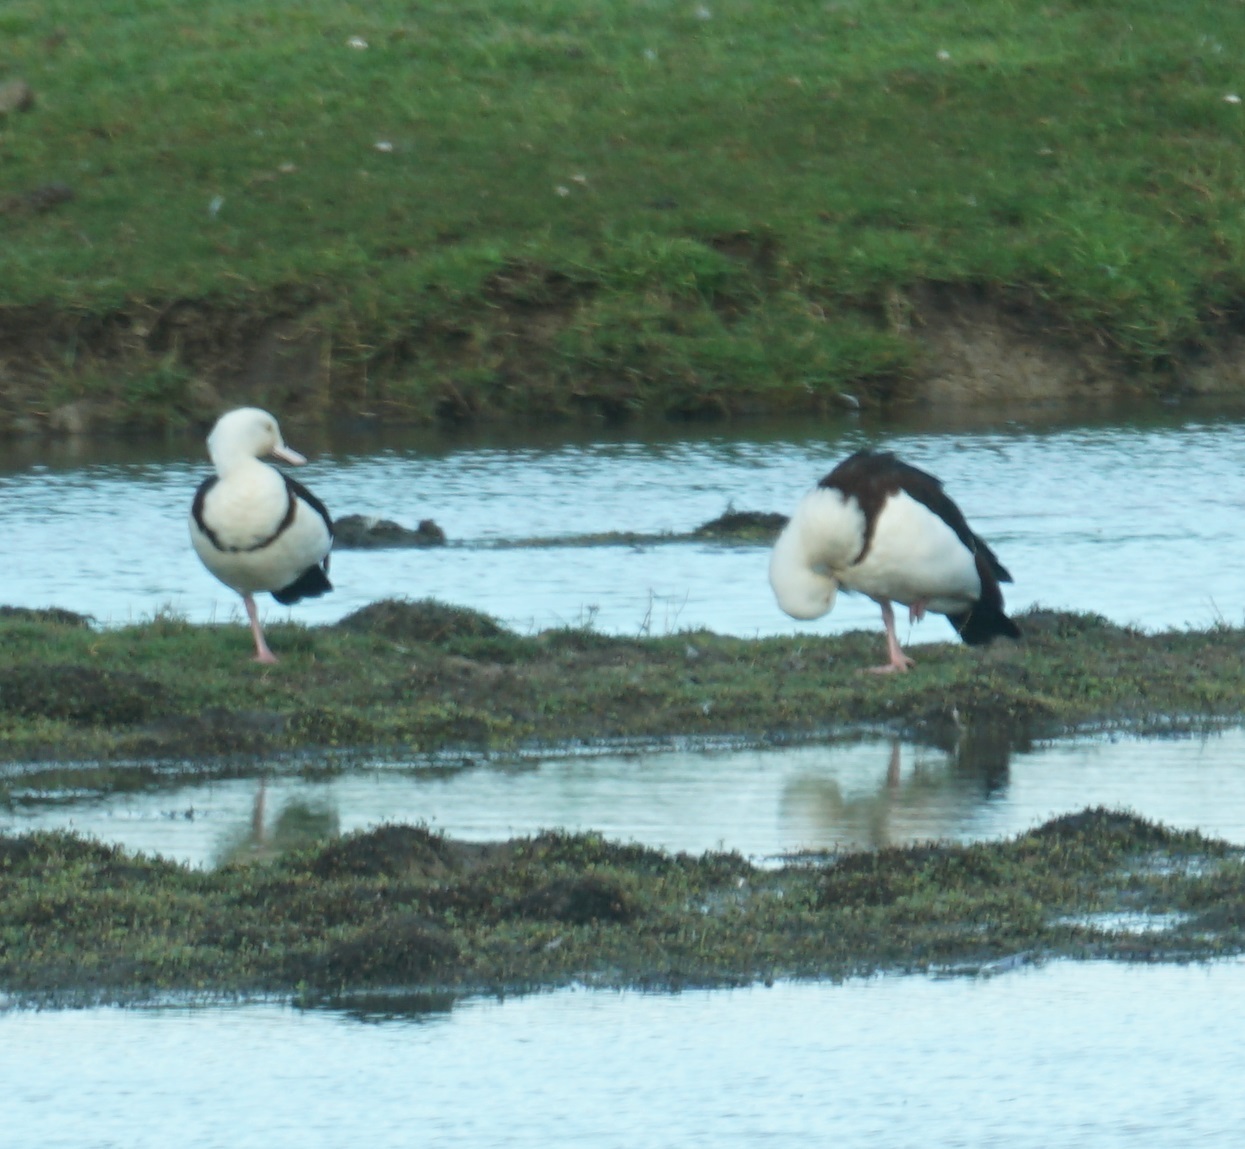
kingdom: Animalia
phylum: Chordata
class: Aves
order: Anseriformes
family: Anatidae
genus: Radjah
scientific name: Radjah radjah
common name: Radjah shelduck
